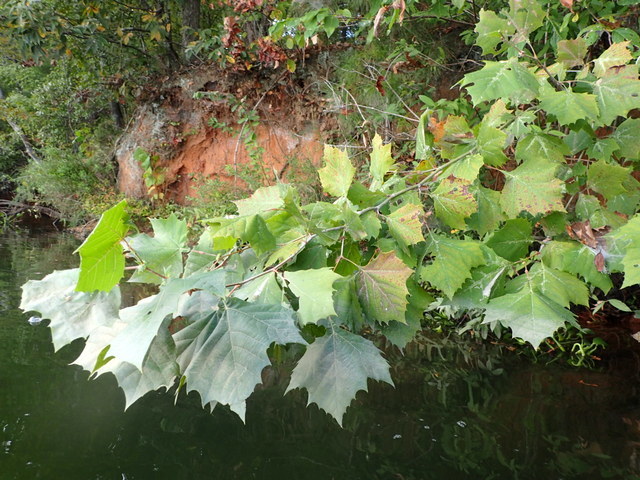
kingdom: Plantae
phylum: Tracheophyta
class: Magnoliopsida
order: Proteales
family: Platanaceae
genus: Platanus
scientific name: Platanus occidentalis
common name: American sycamore
